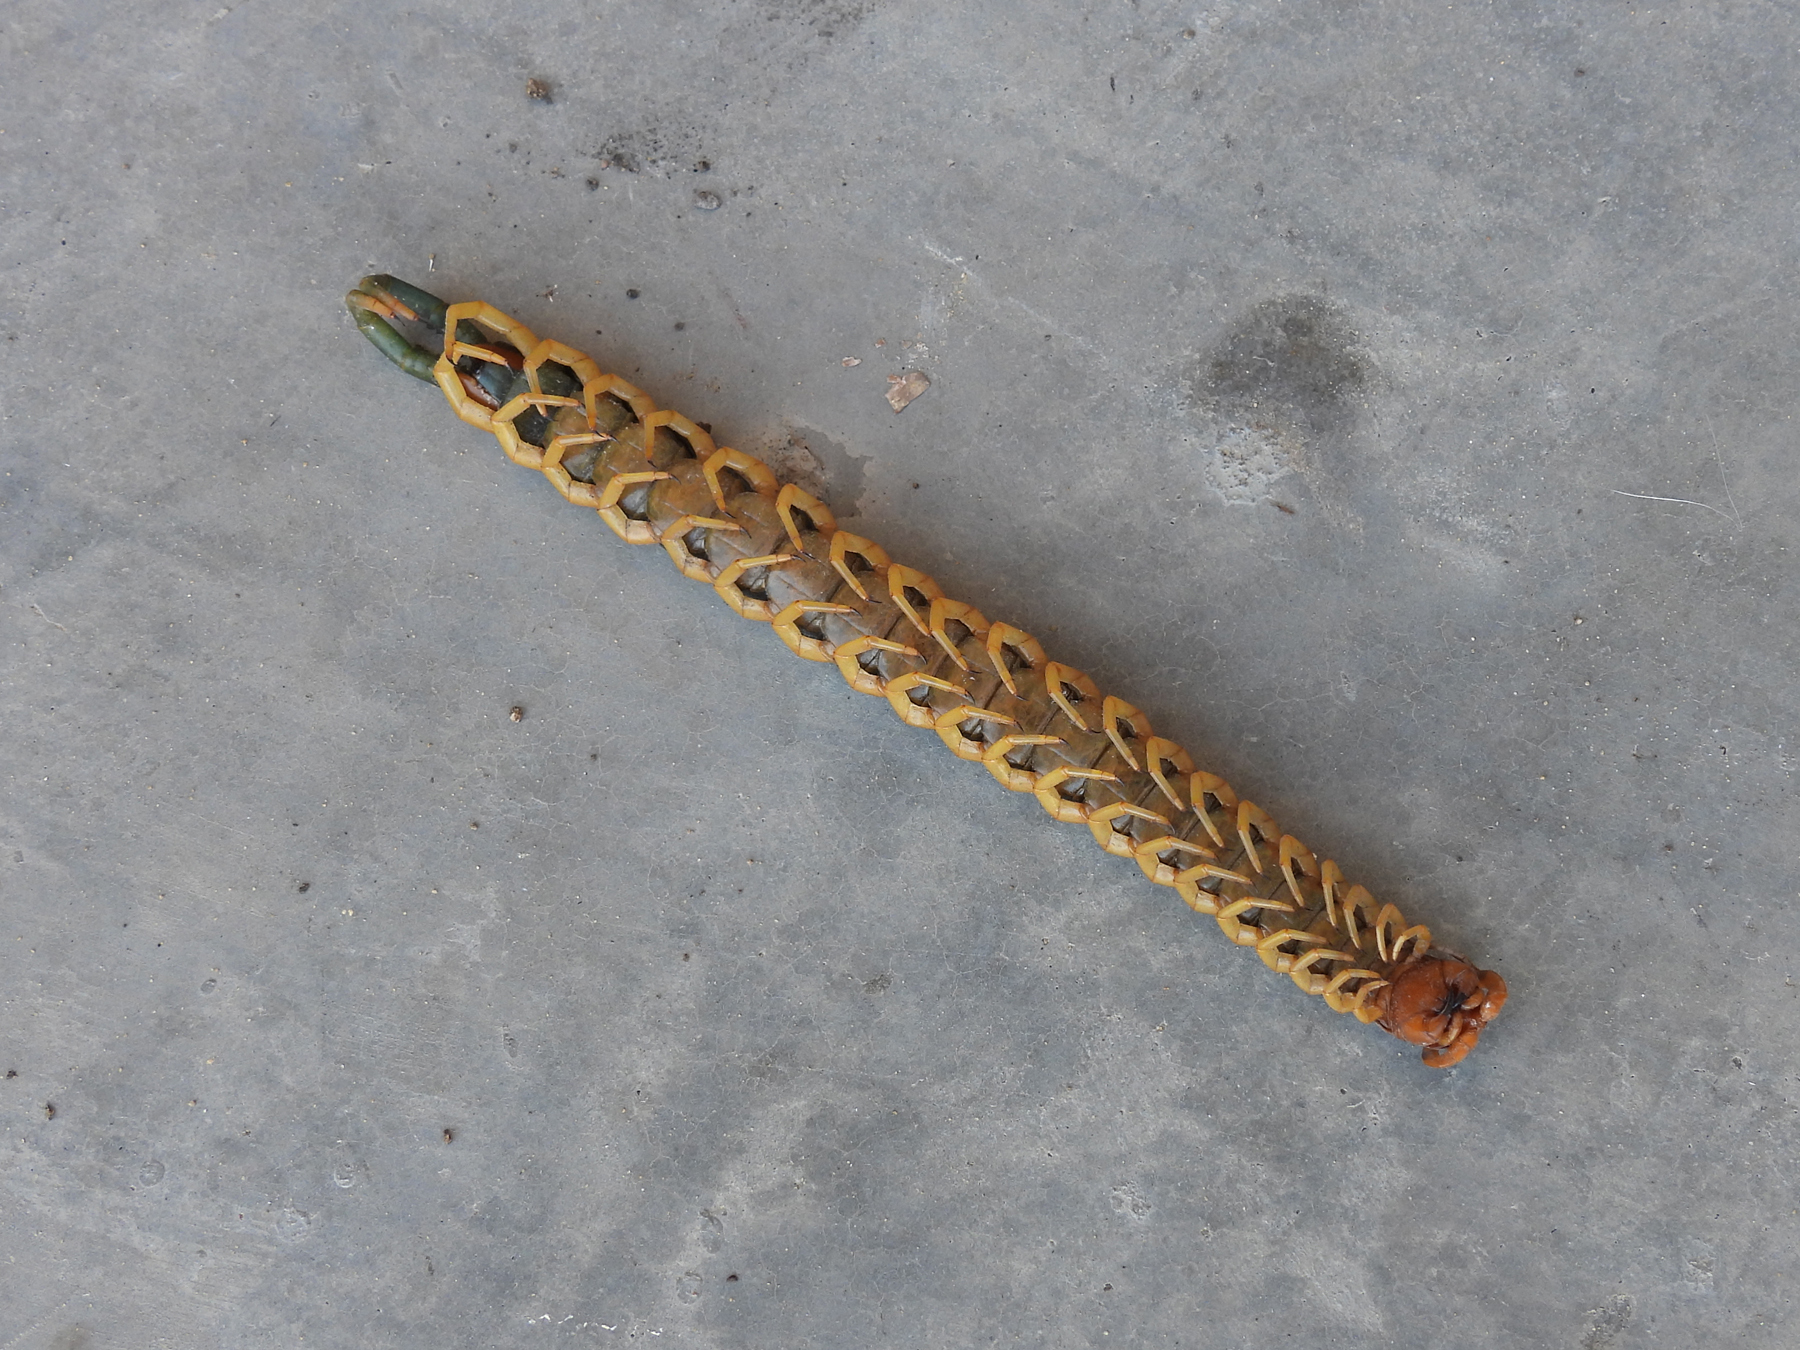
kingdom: Animalia
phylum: Arthropoda
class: Chilopoda
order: Scolopendromorpha
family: Scolopendridae
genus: Scolopendra
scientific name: Scolopendra heros
